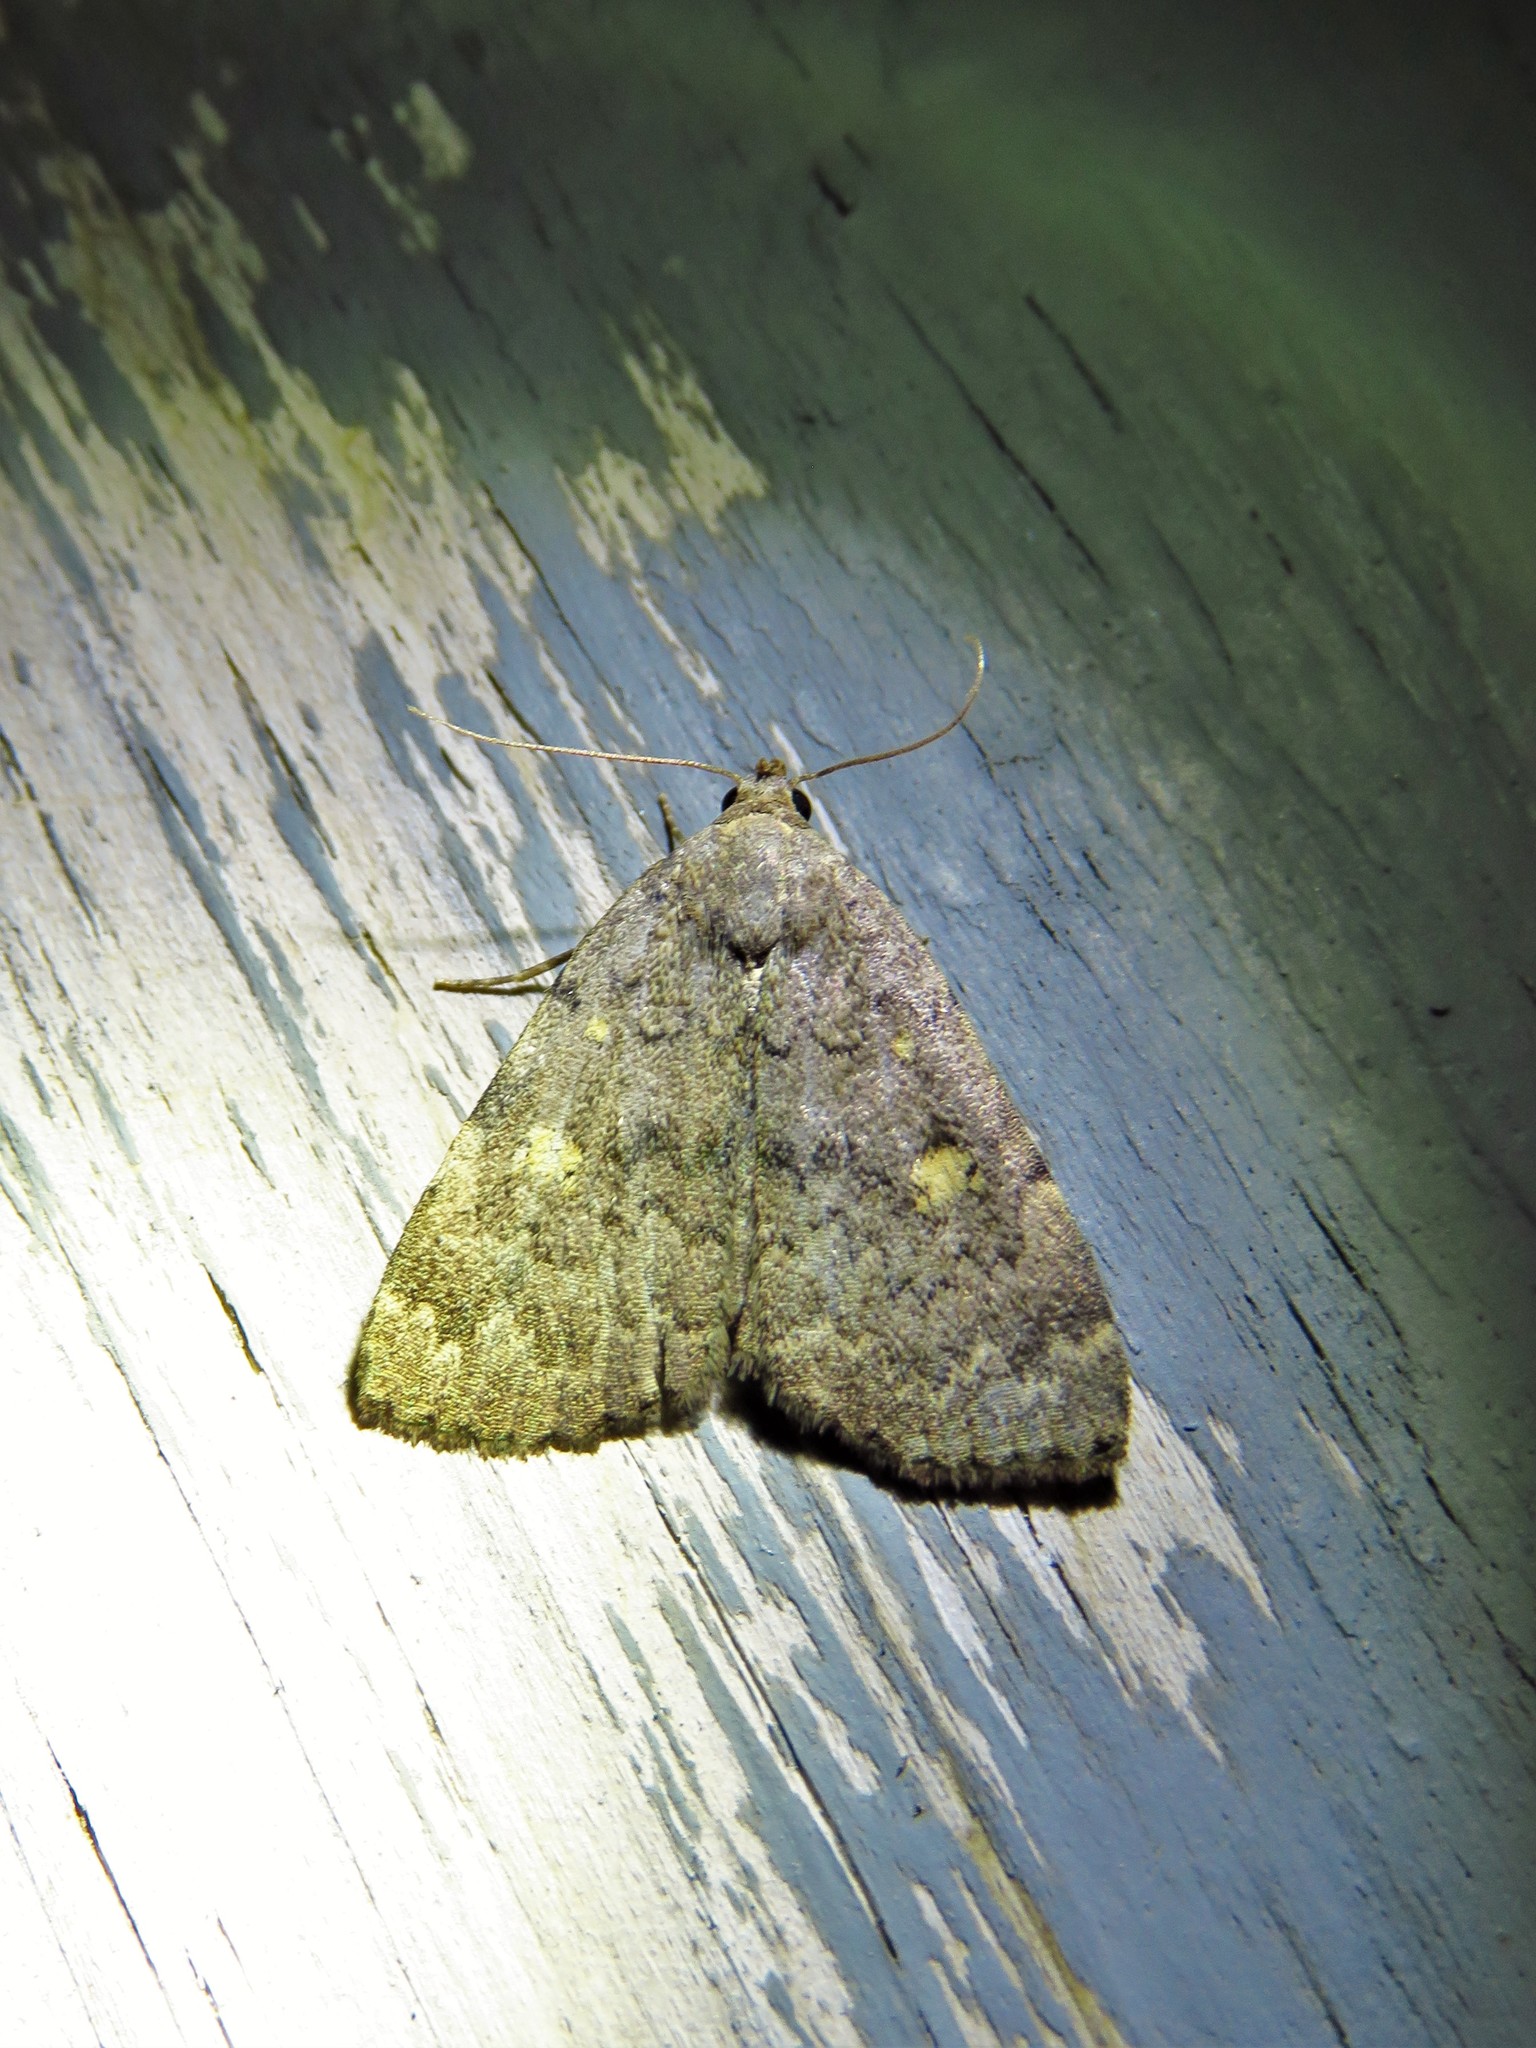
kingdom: Animalia
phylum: Arthropoda
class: Insecta
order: Lepidoptera
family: Erebidae
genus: Idia
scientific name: Idia aemula
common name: Common idia moth
